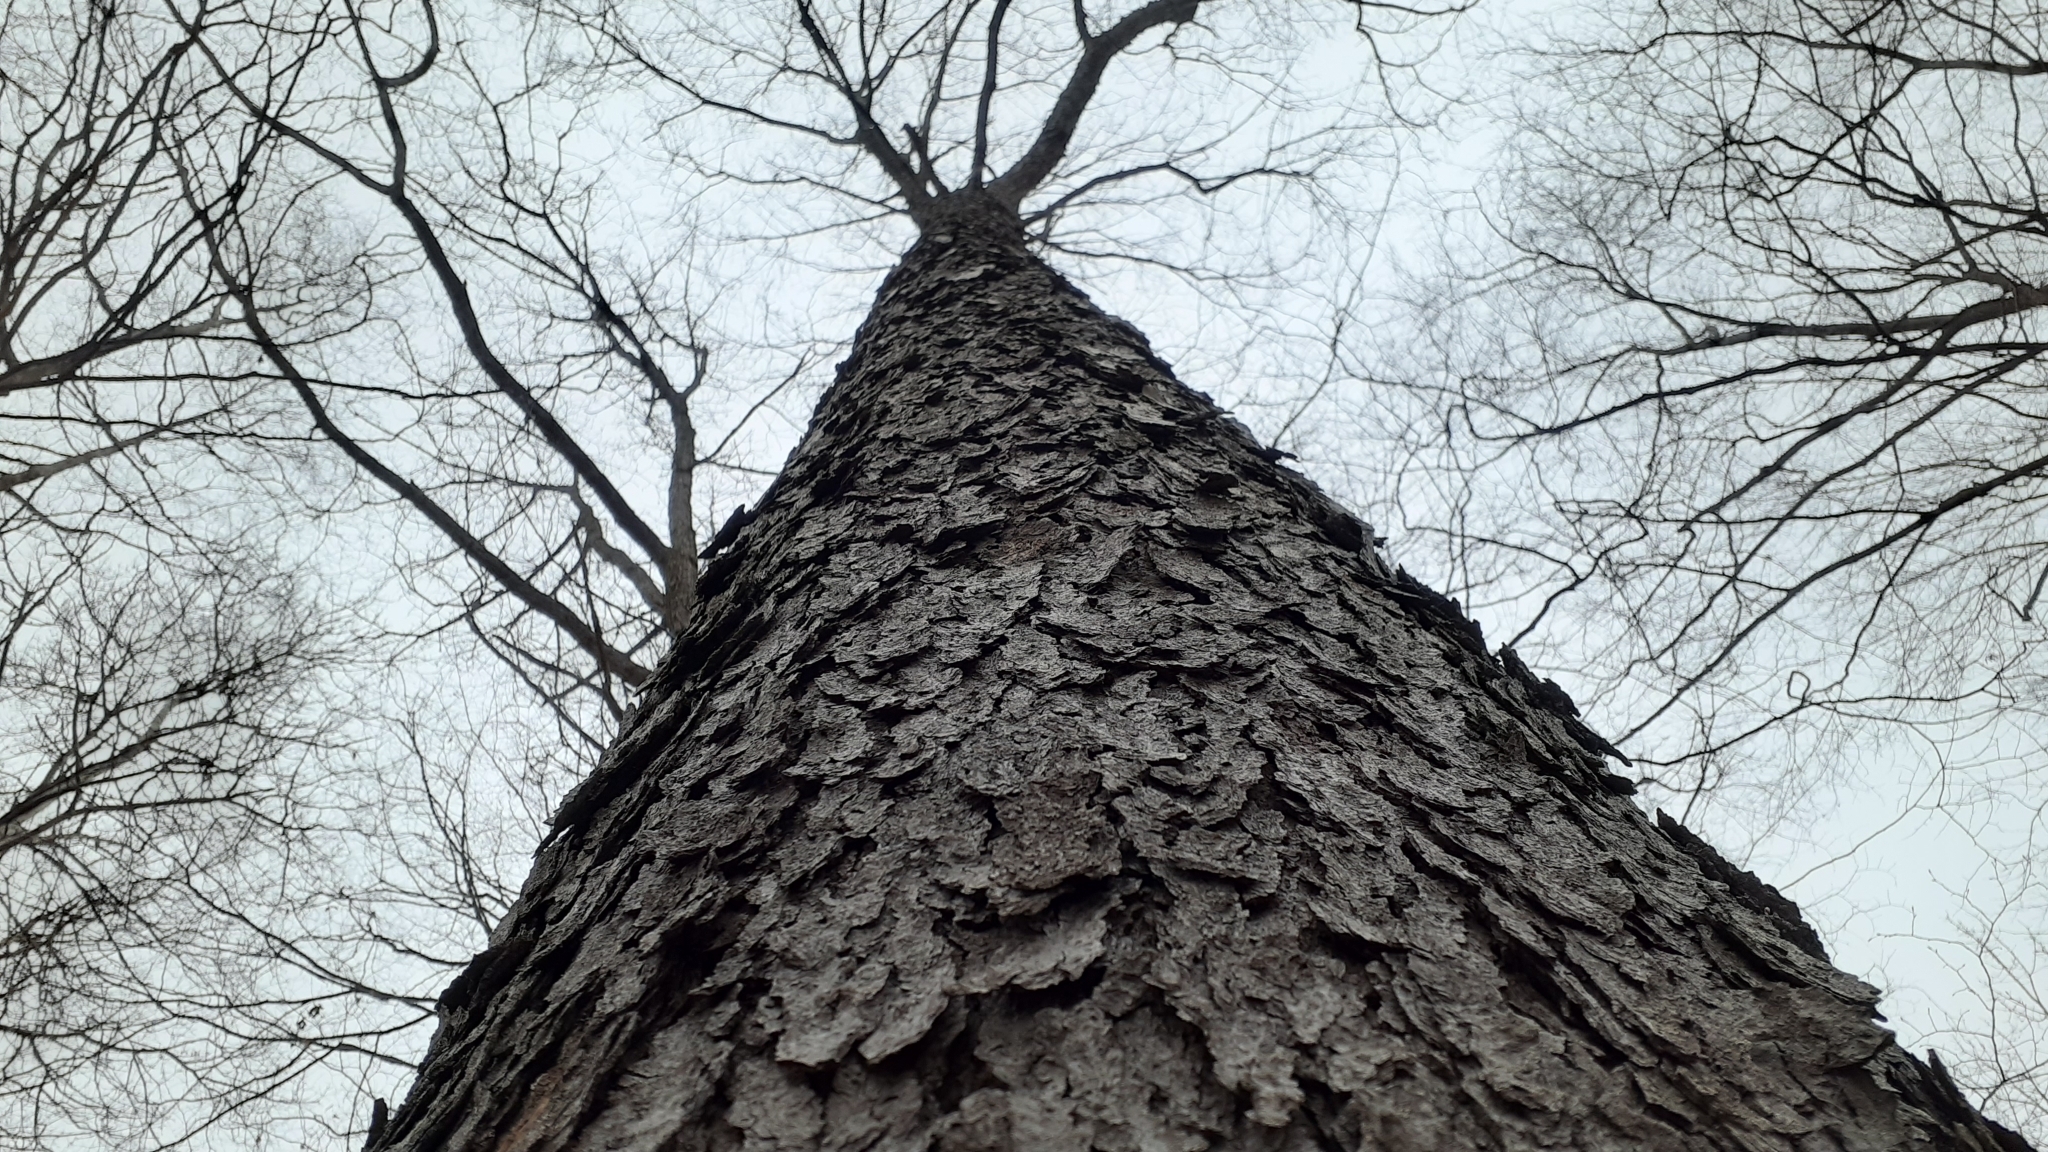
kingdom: Plantae
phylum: Tracheophyta
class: Magnoliopsida
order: Rosales
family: Rosaceae
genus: Prunus
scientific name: Prunus serotina
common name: Black cherry
